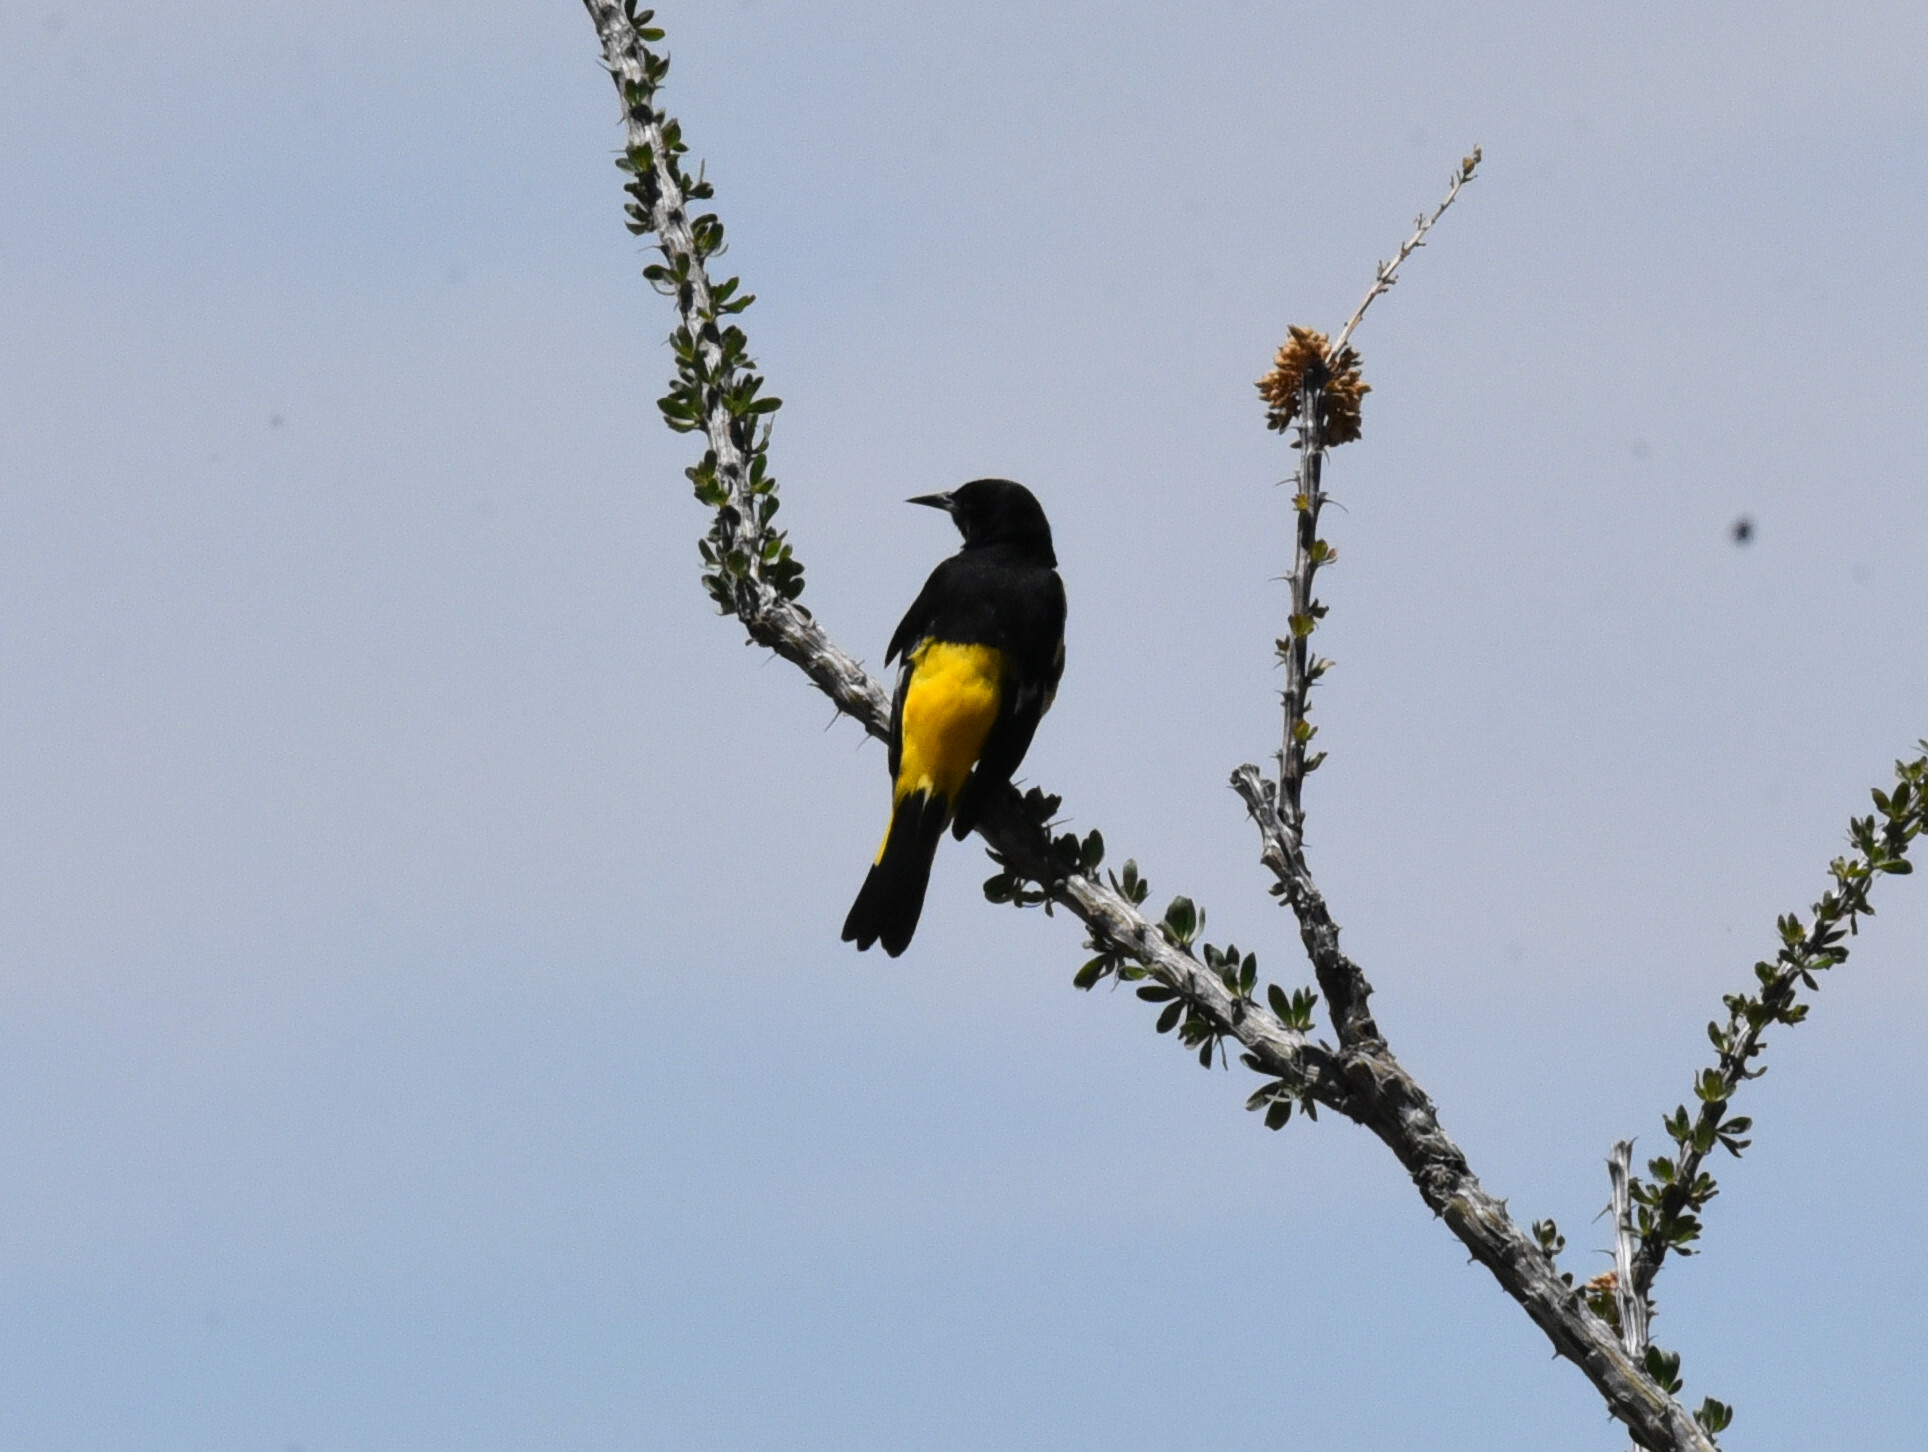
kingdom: Animalia
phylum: Chordata
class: Aves
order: Passeriformes
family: Icteridae
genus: Icterus
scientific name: Icterus parisorum
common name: Scott's oriole
